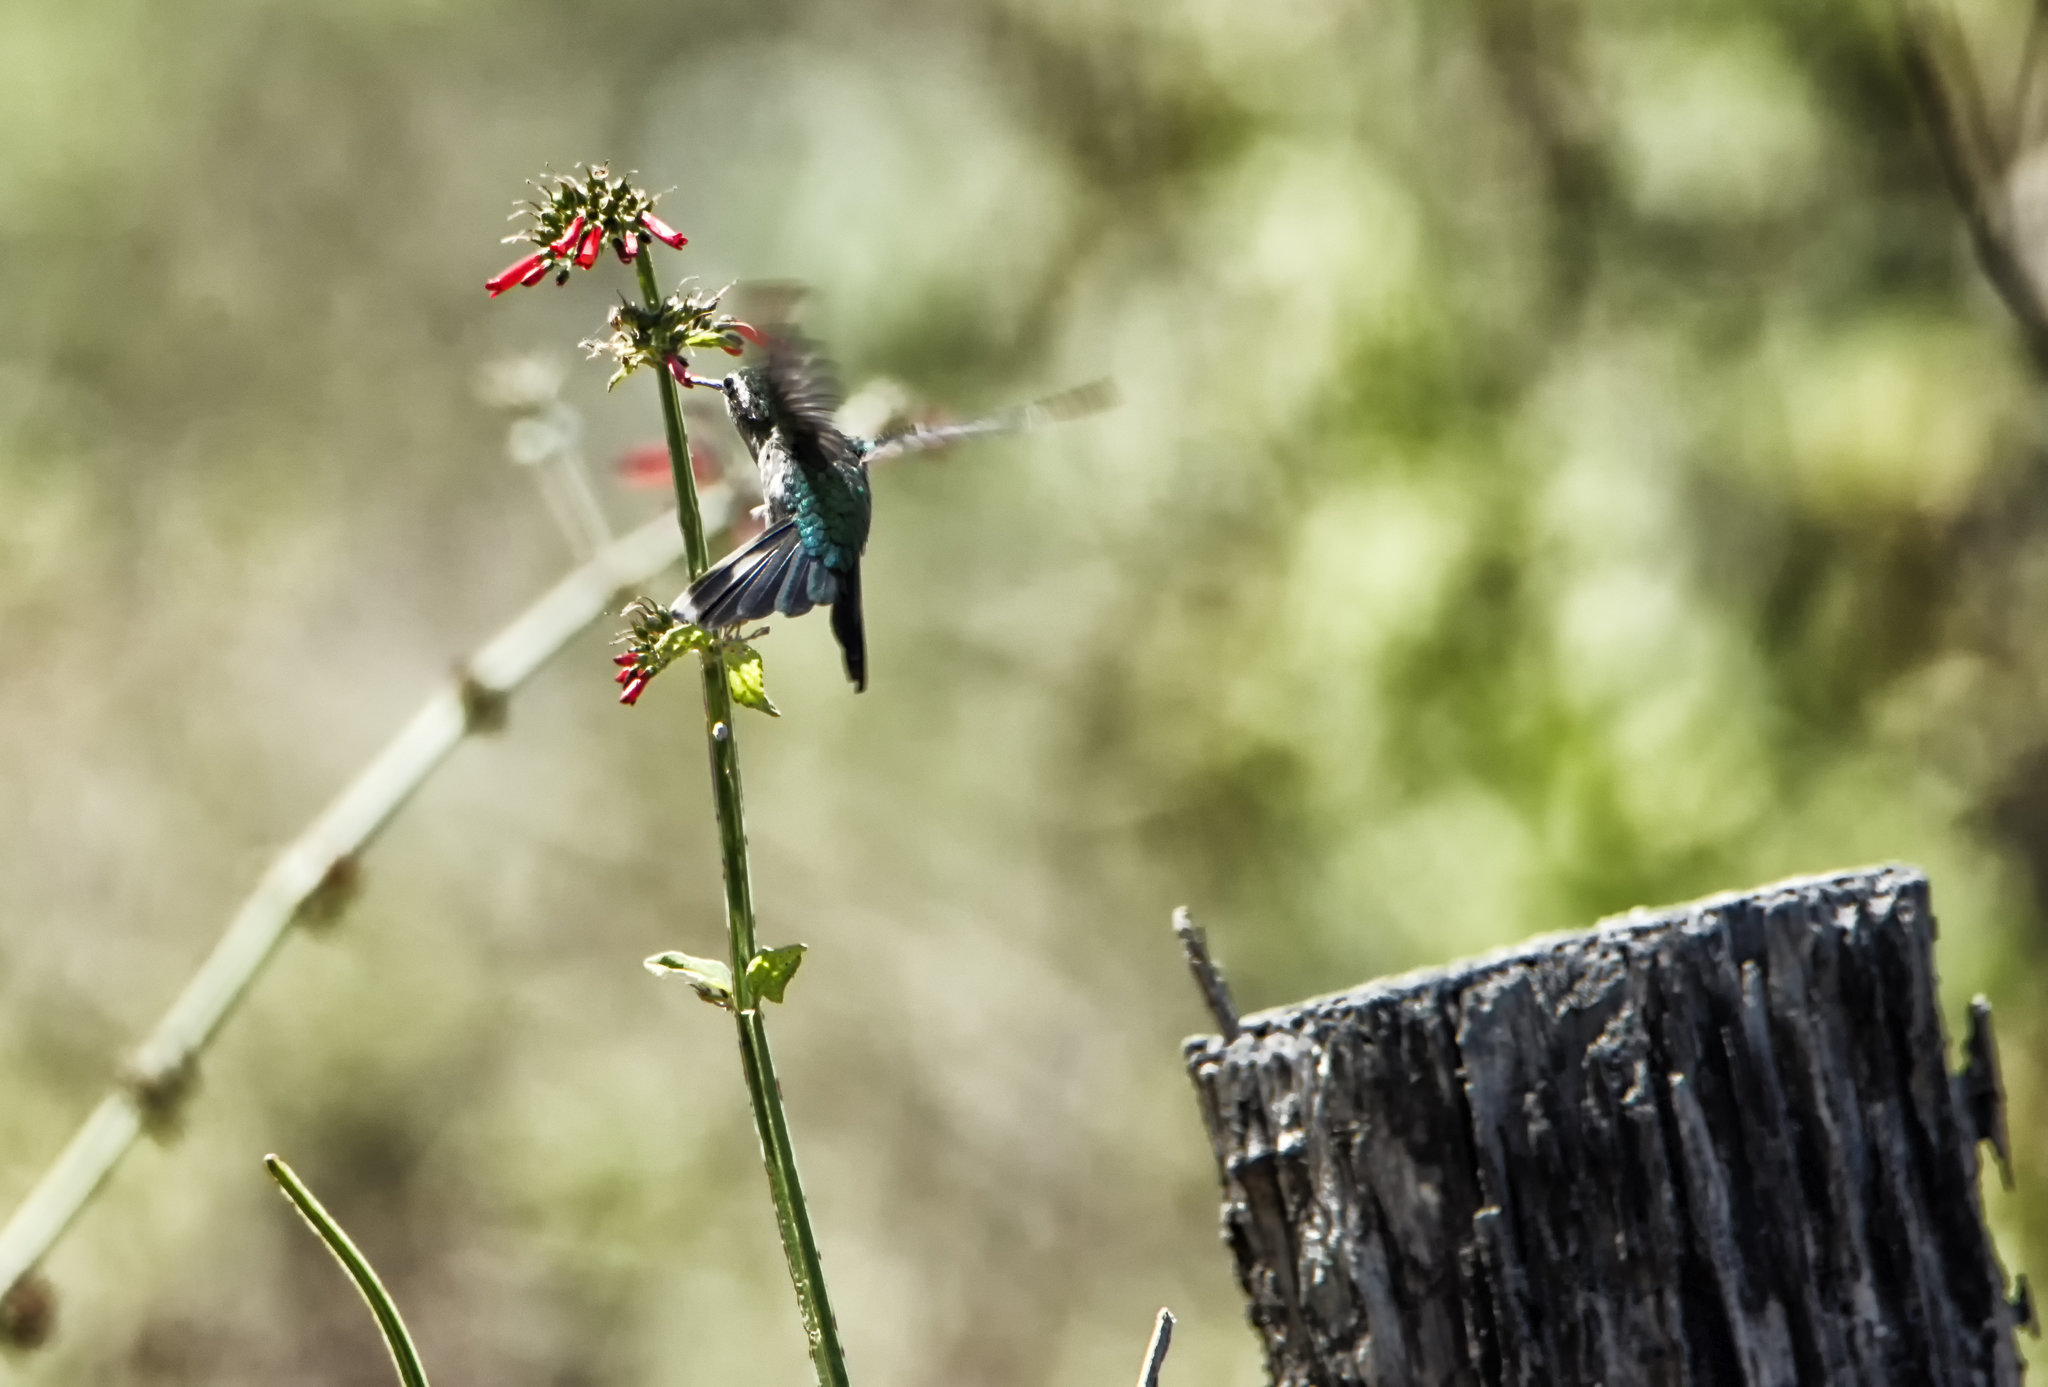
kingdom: Animalia
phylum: Chordata
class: Aves
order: Apodiformes
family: Trochilidae
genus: Cynanthus
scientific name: Cynanthus auriceps
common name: Golden-crowned emerald
